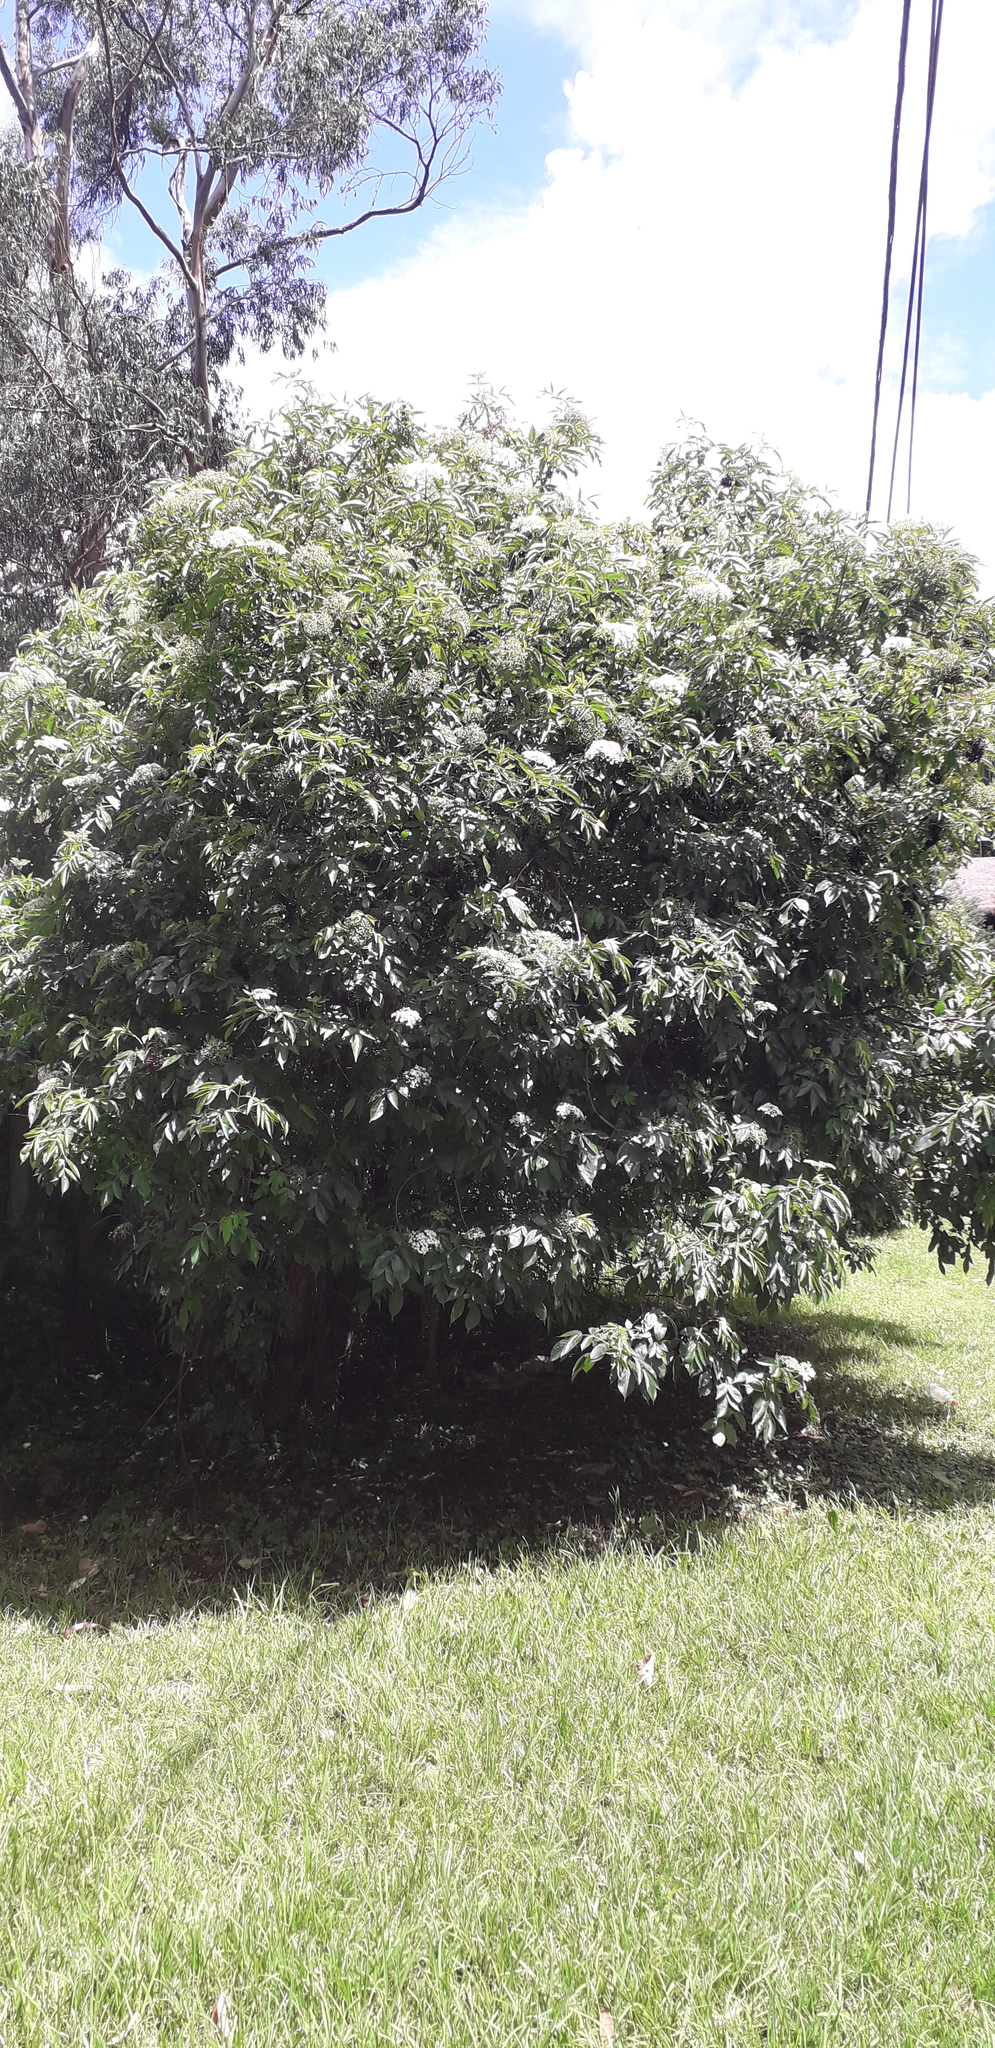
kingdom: Plantae
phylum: Tracheophyta
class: Magnoliopsida
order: Dipsacales
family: Viburnaceae
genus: Sambucus
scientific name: Sambucus nigra
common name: Elder
